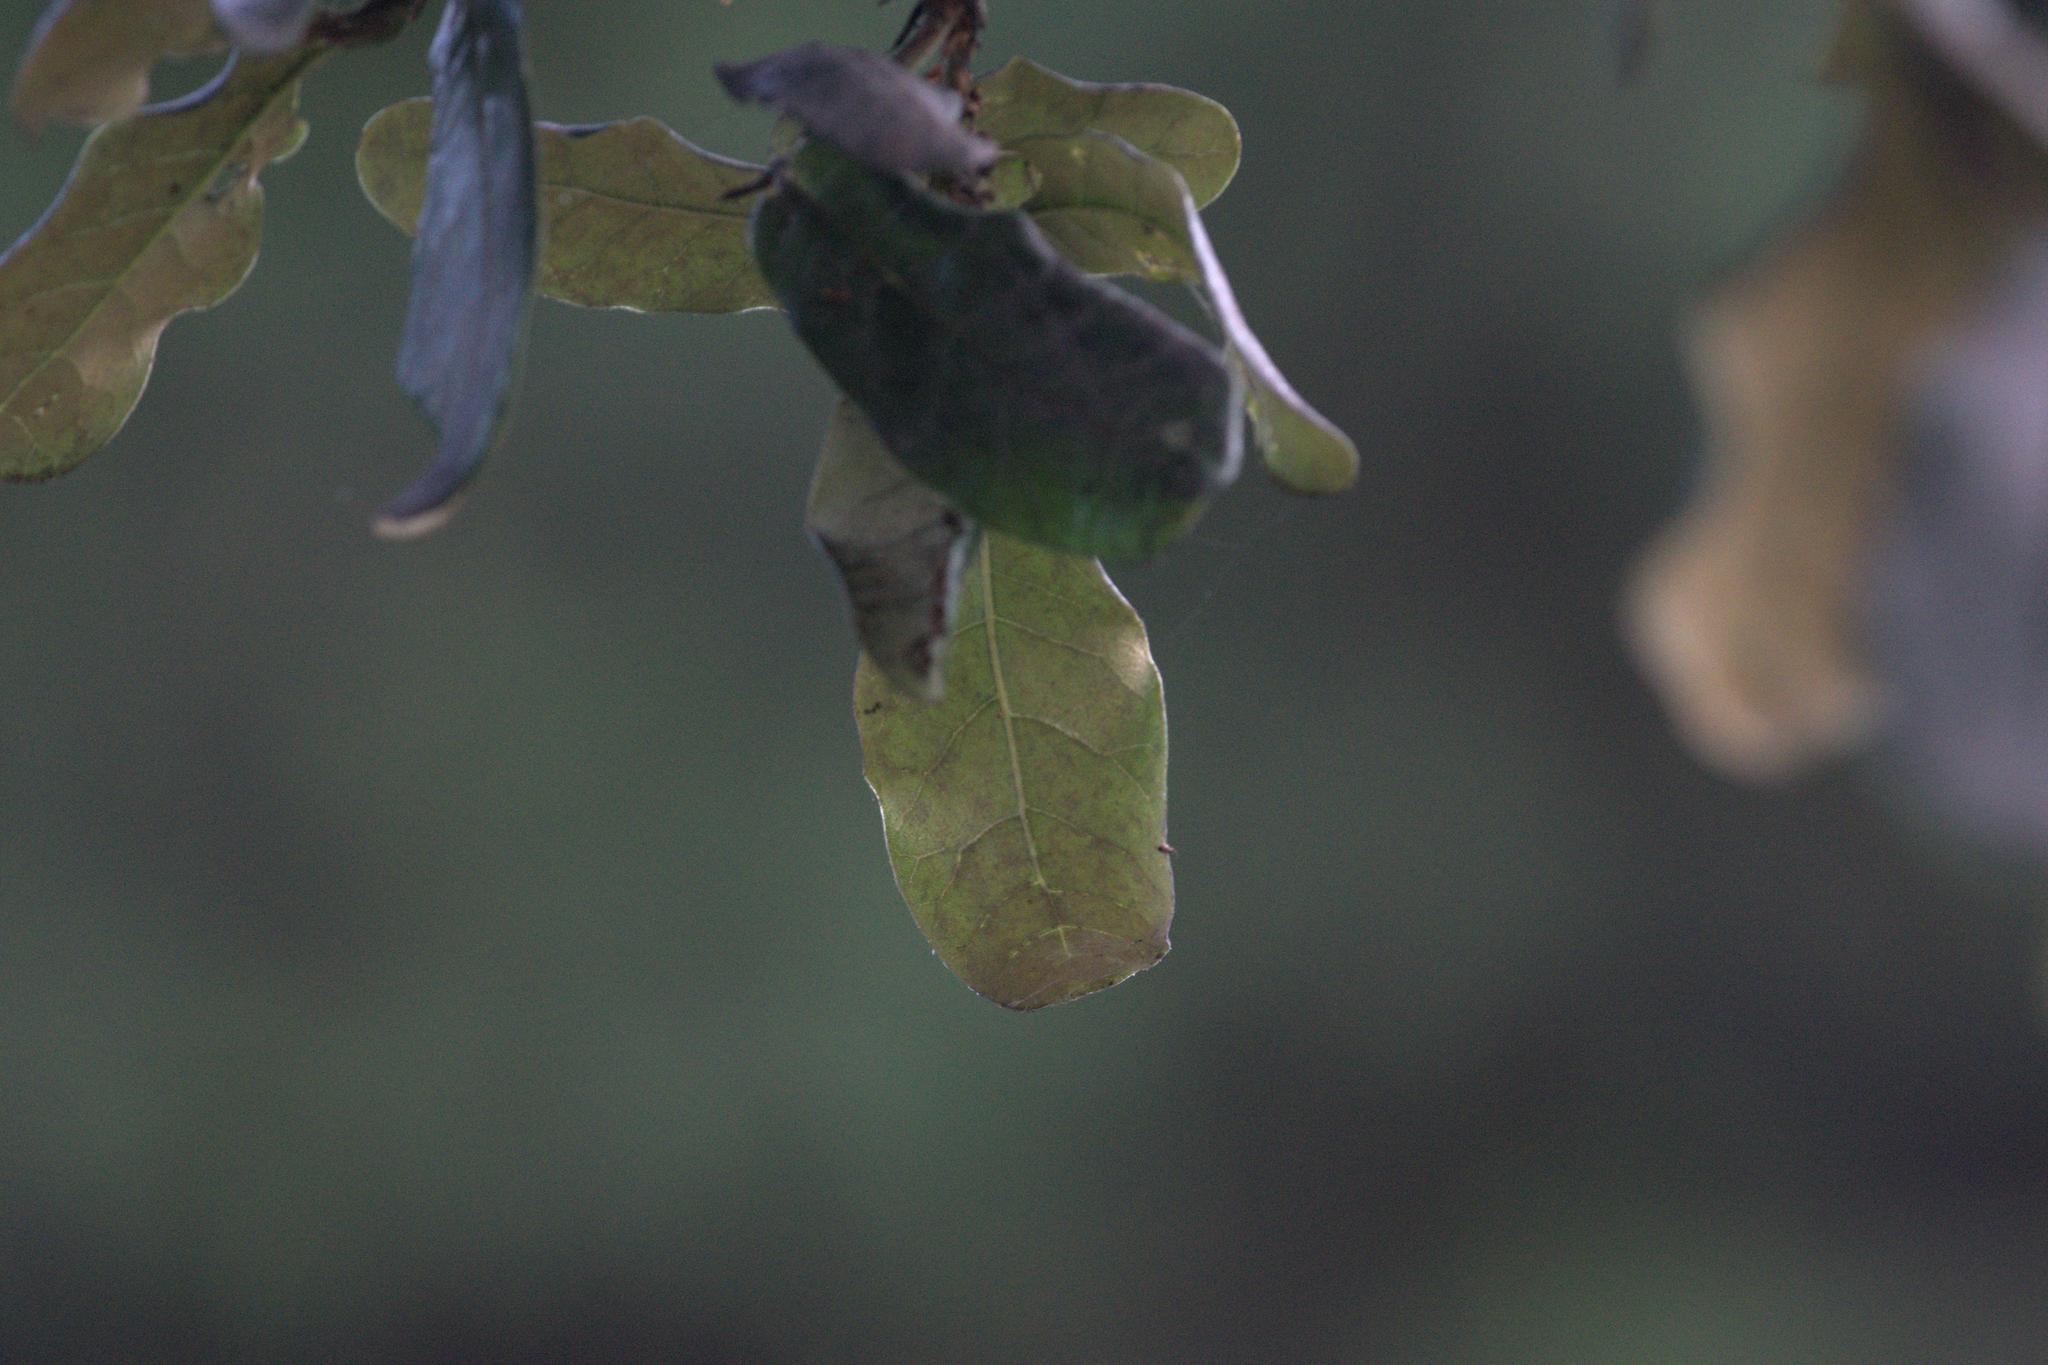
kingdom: Plantae
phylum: Tracheophyta
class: Magnoliopsida
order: Fagales
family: Fagaceae
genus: Quercus
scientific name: Quercus semecarpifolia
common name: Brown oak
